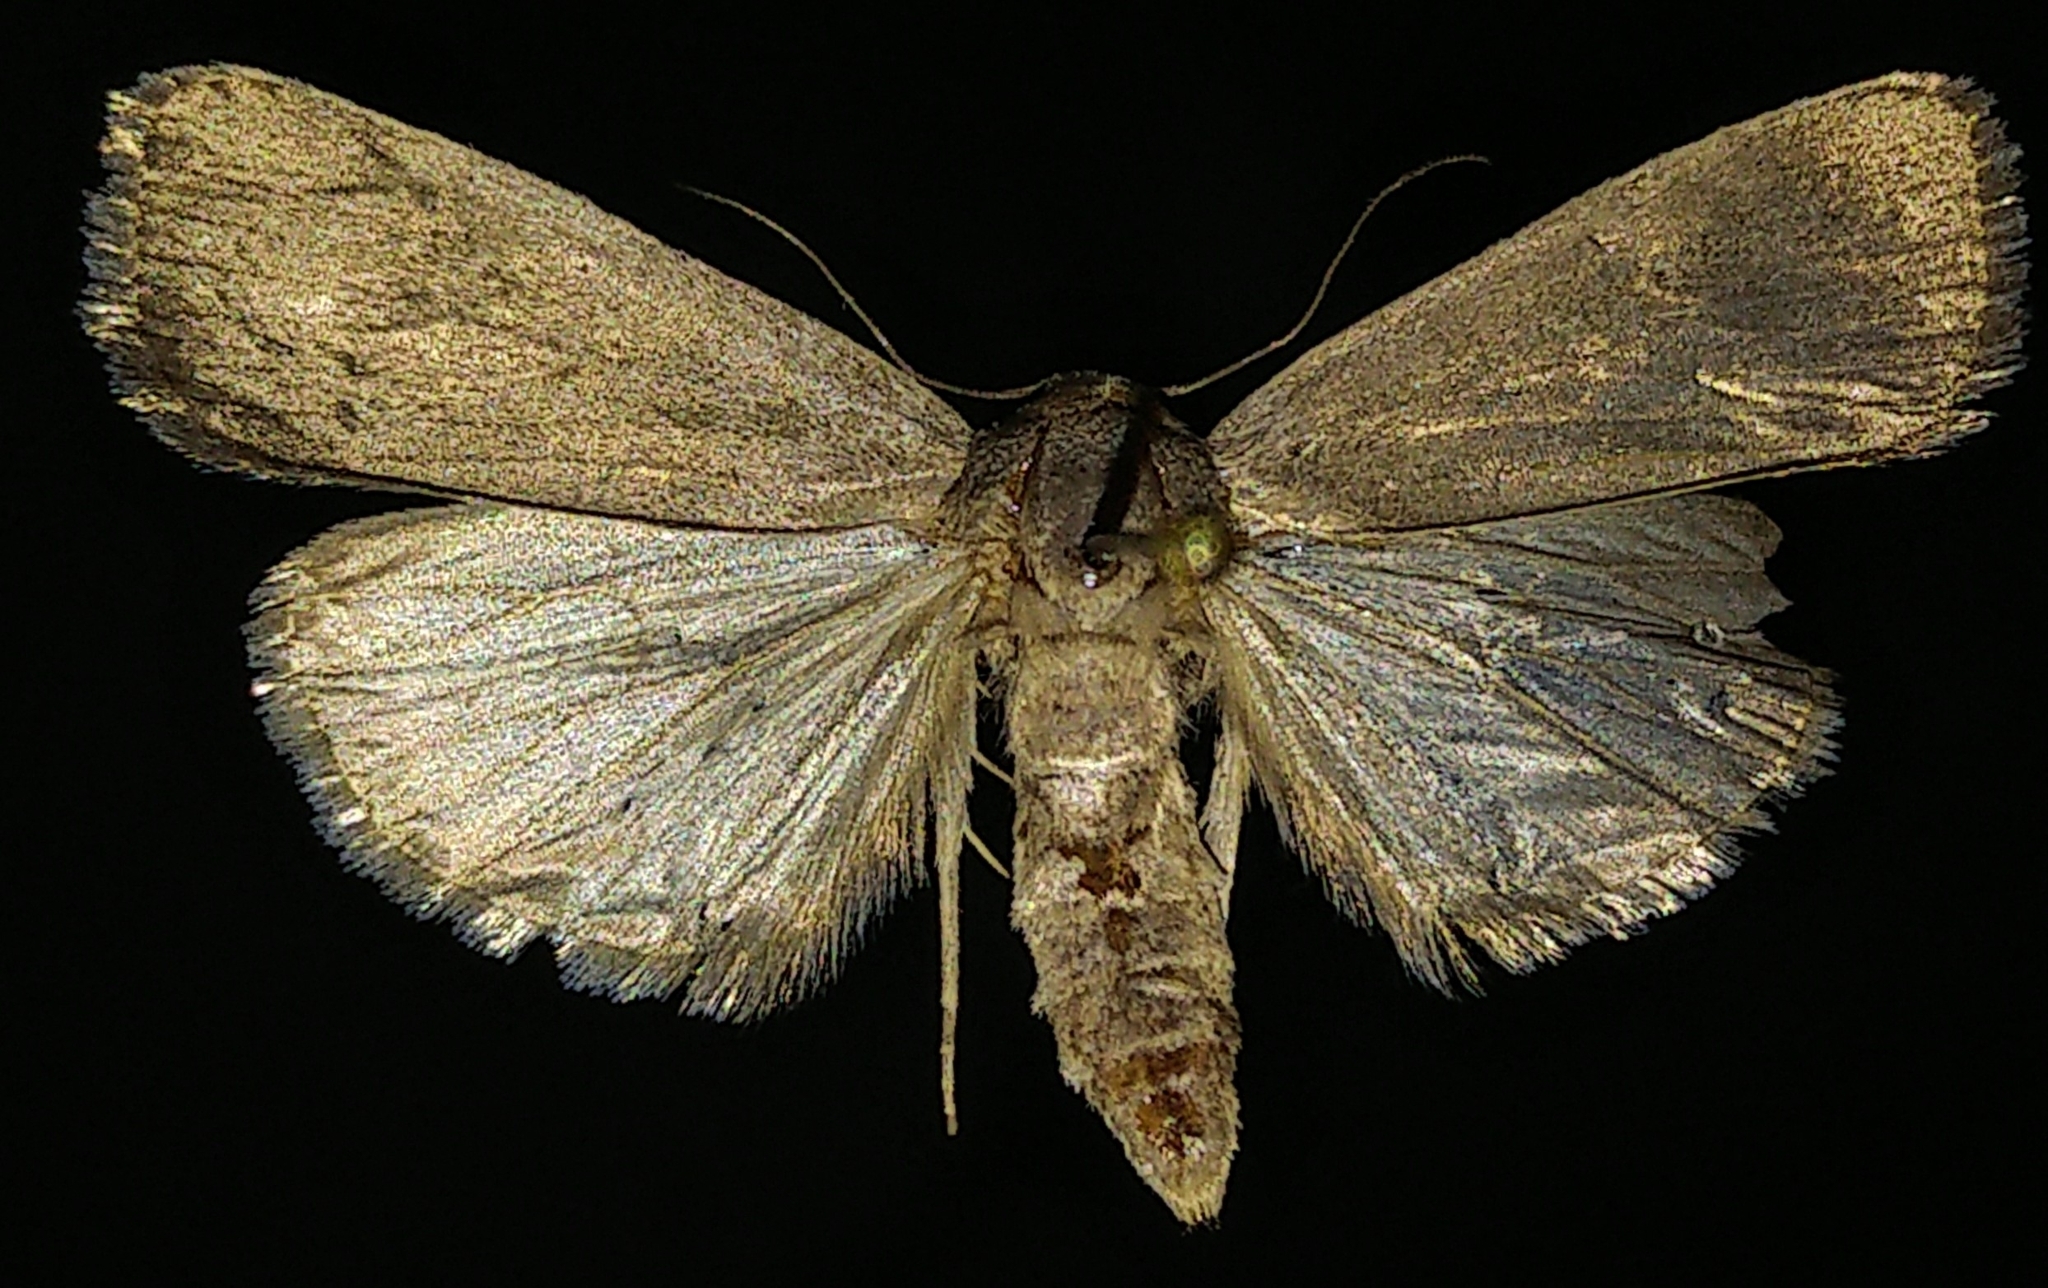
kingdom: Animalia
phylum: Arthropoda
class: Insecta
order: Lepidoptera
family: Noctuidae
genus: Proxenus
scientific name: Proxenus miranda
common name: Miranda moth
